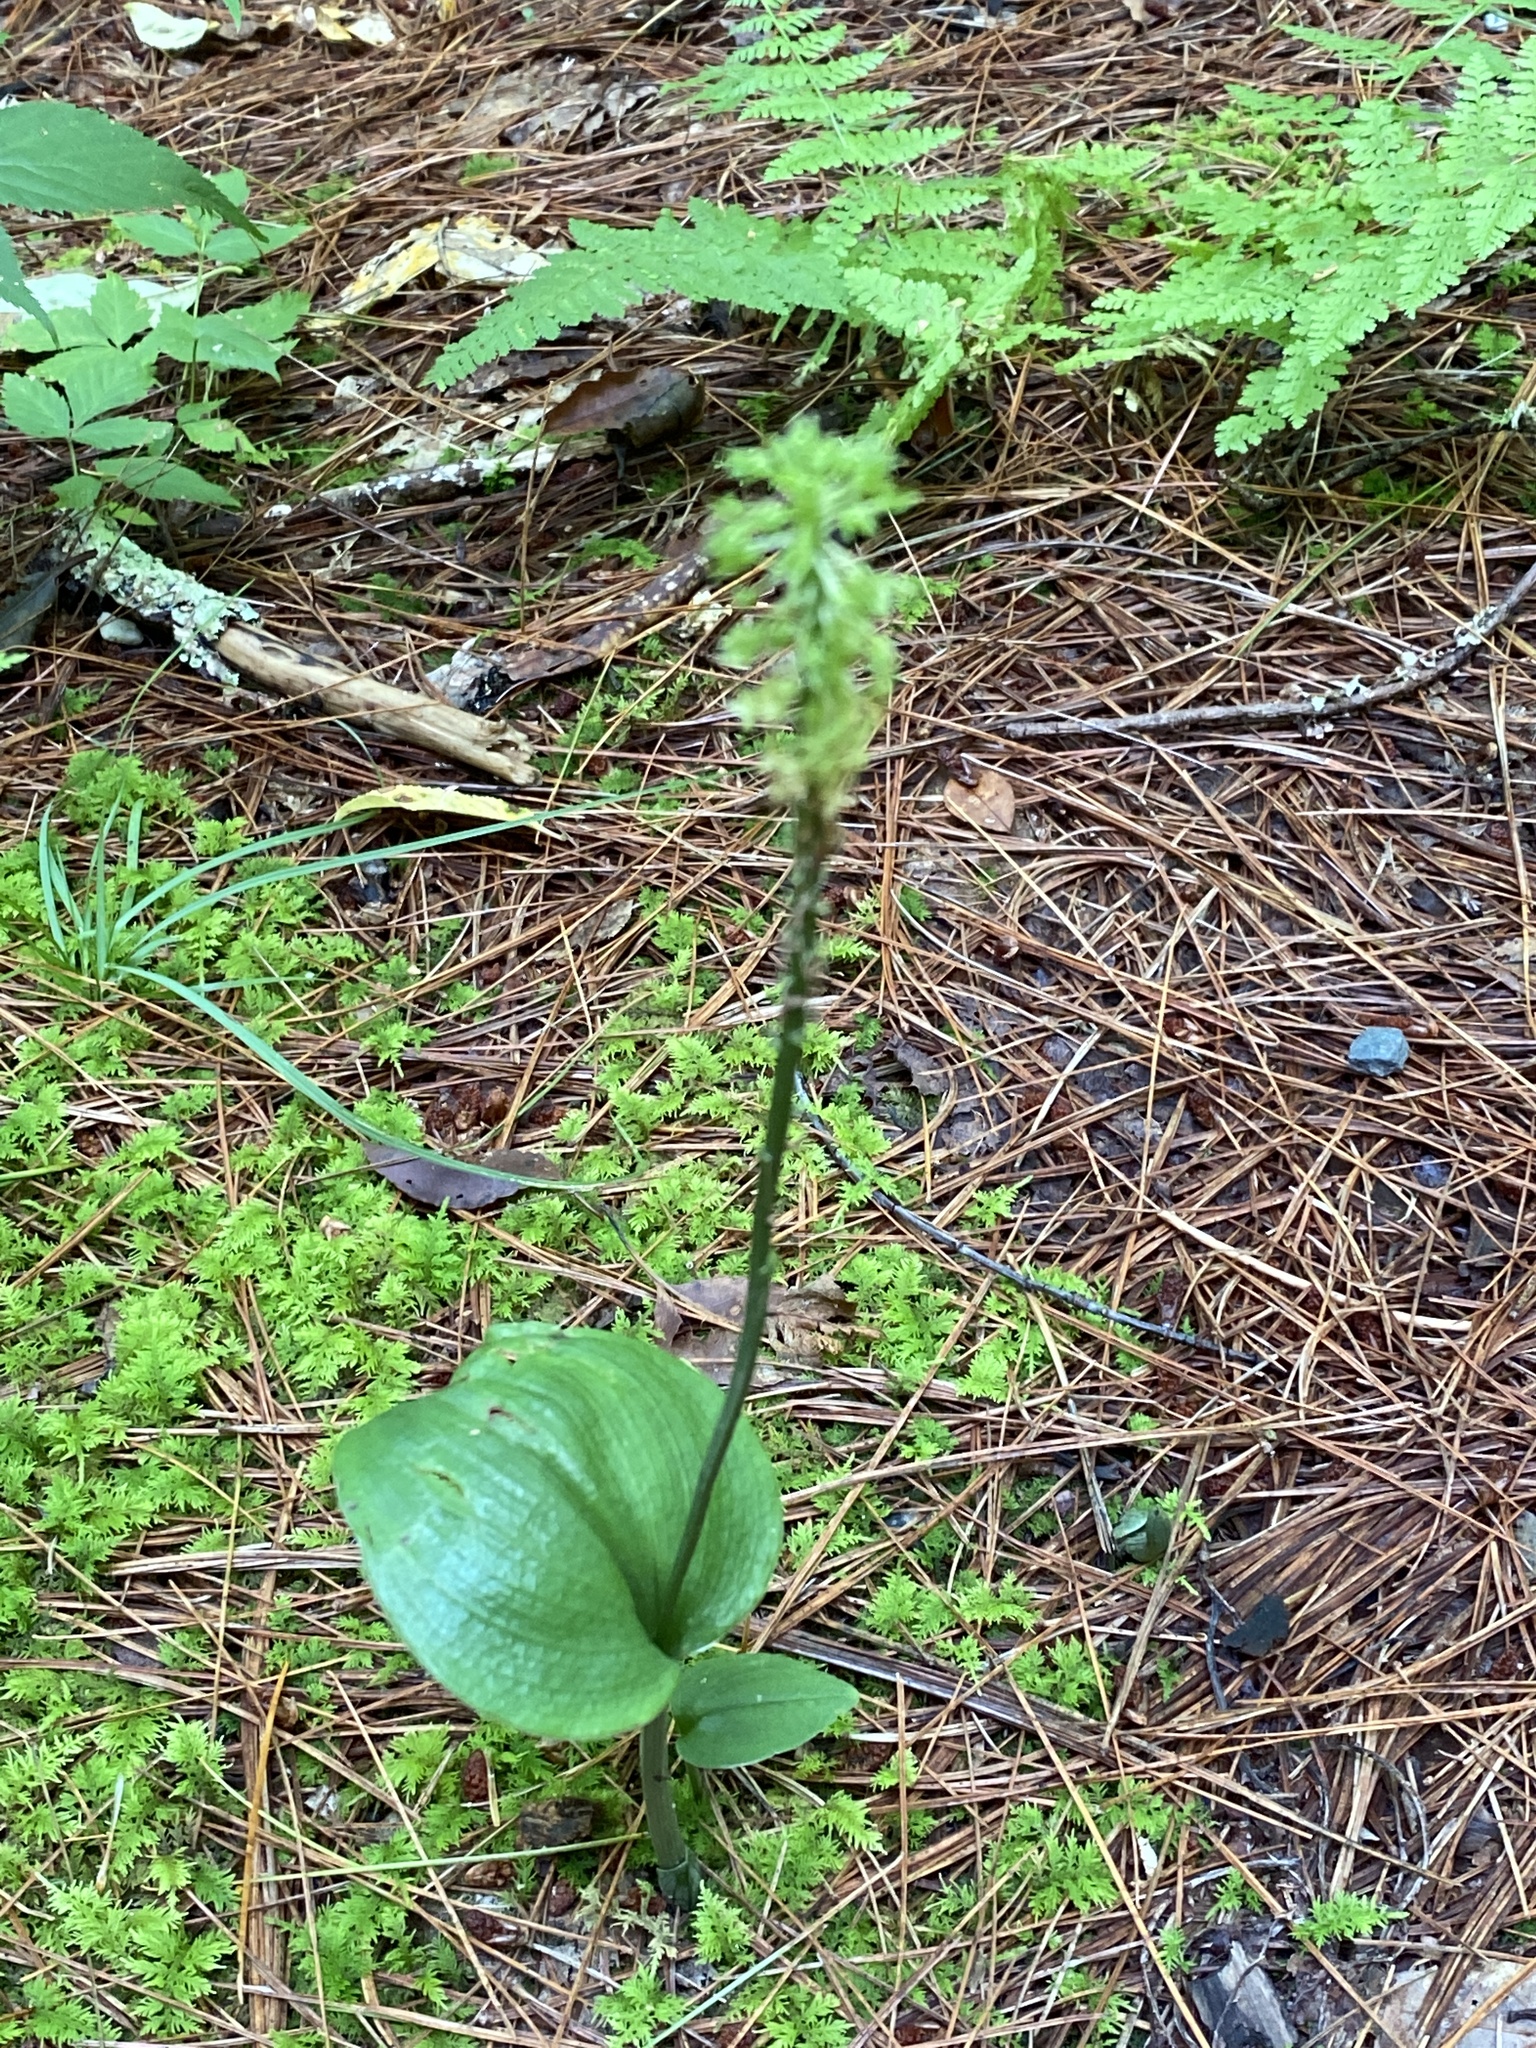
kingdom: Plantae
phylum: Tracheophyta
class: Liliopsida
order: Asparagales
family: Orchidaceae
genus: Malaxis
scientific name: Malaxis unifolia
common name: Green adder's-mouth
